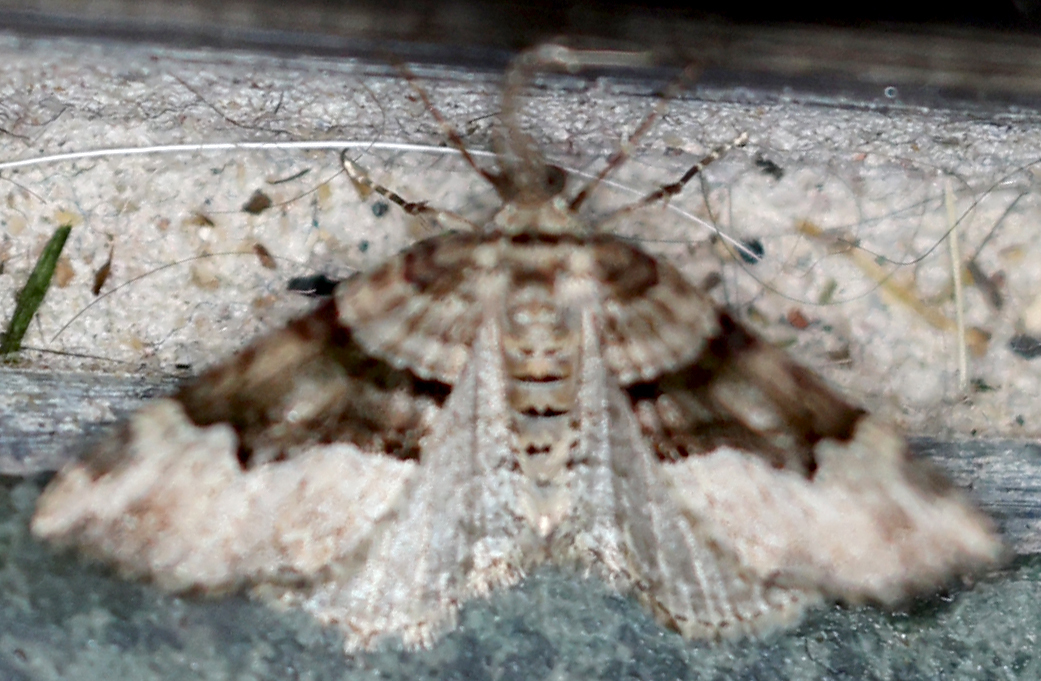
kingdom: Animalia
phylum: Arthropoda
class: Insecta
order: Lepidoptera
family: Geometridae
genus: Xanthorhoe
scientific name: Xanthorhoe lacustrata
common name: Toothed brown carpet
